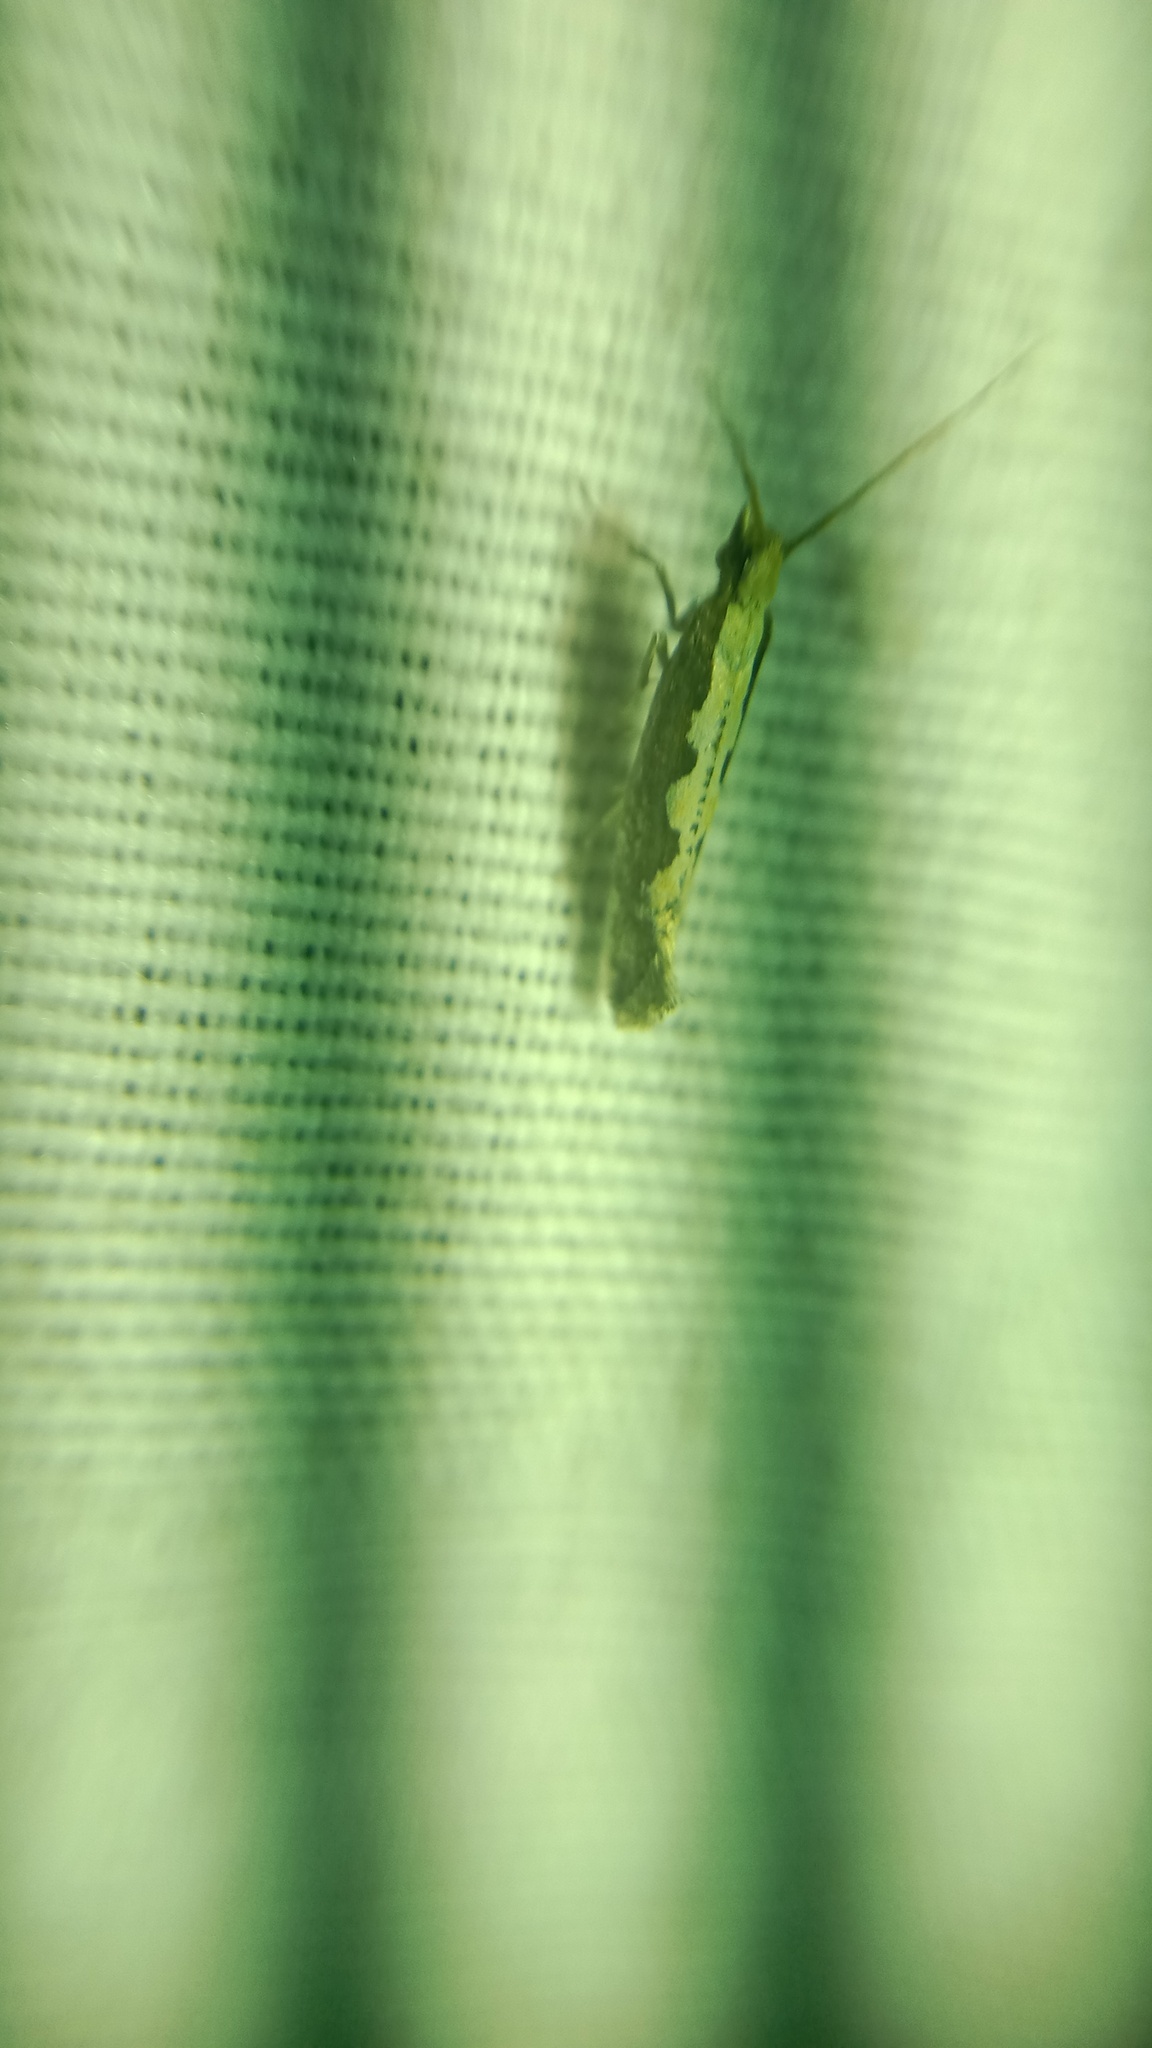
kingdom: Animalia
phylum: Arthropoda
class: Insecta
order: Lepidoptera
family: Plutellidae
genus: Plutella
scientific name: Plutella xylostella
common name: Diamond-back moth
